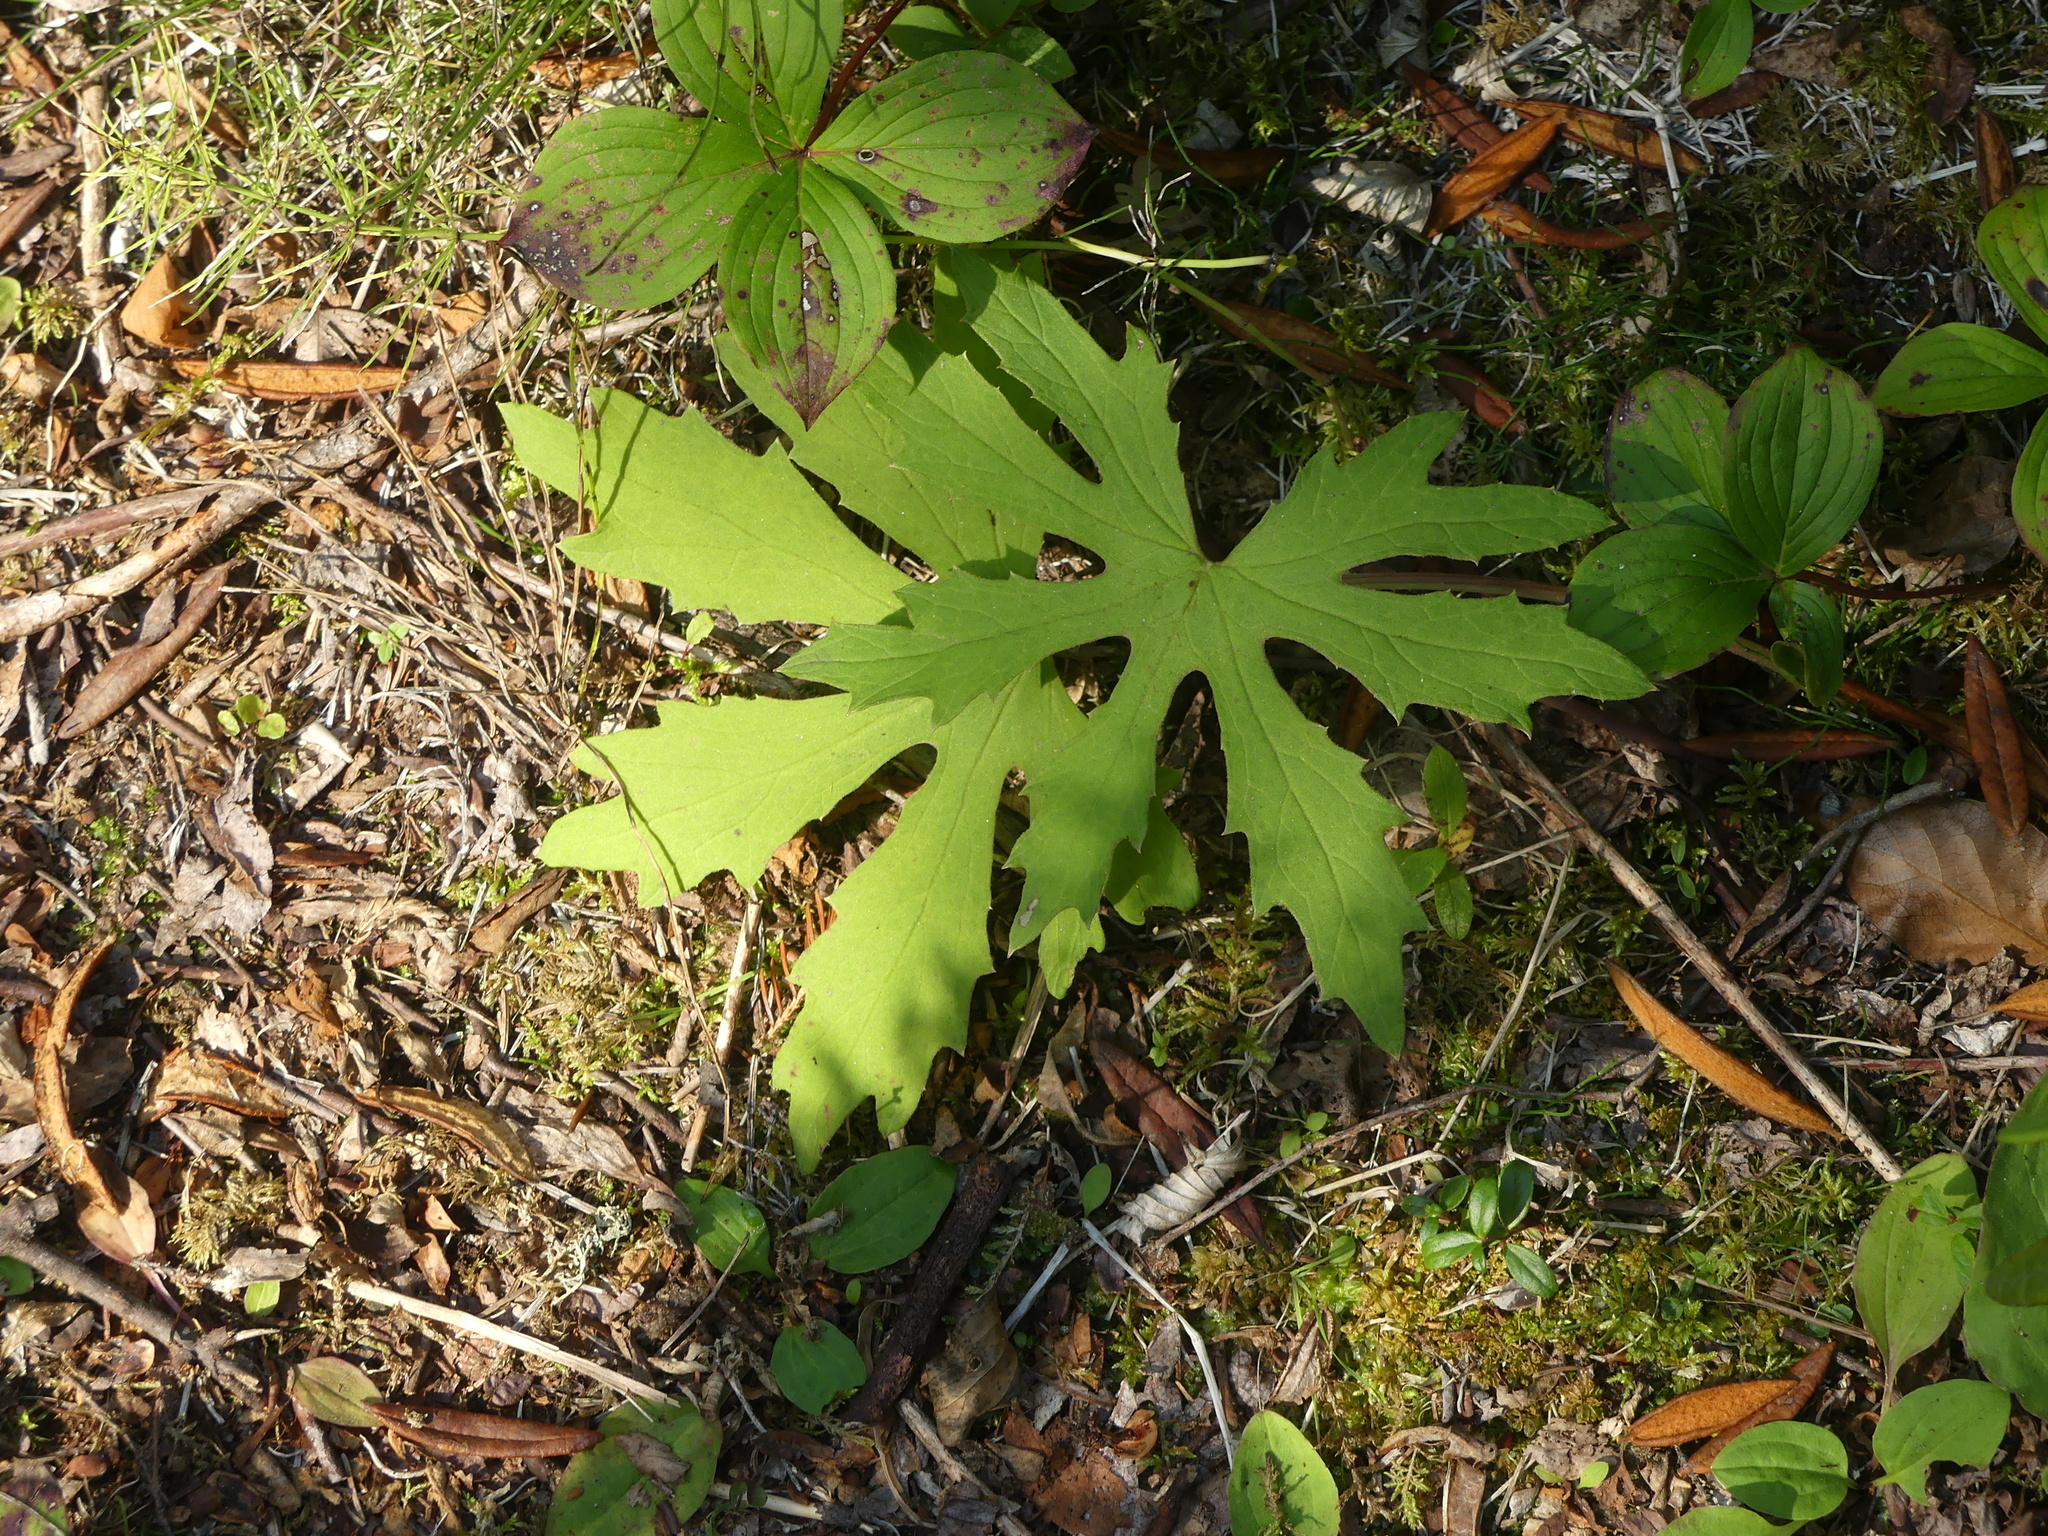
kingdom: Plantae
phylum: Tracheophyta
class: Magnoliopsida
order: Asterales
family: Asteraceae
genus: Petasites
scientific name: Petasites frigidus
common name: Arctic butterbur
